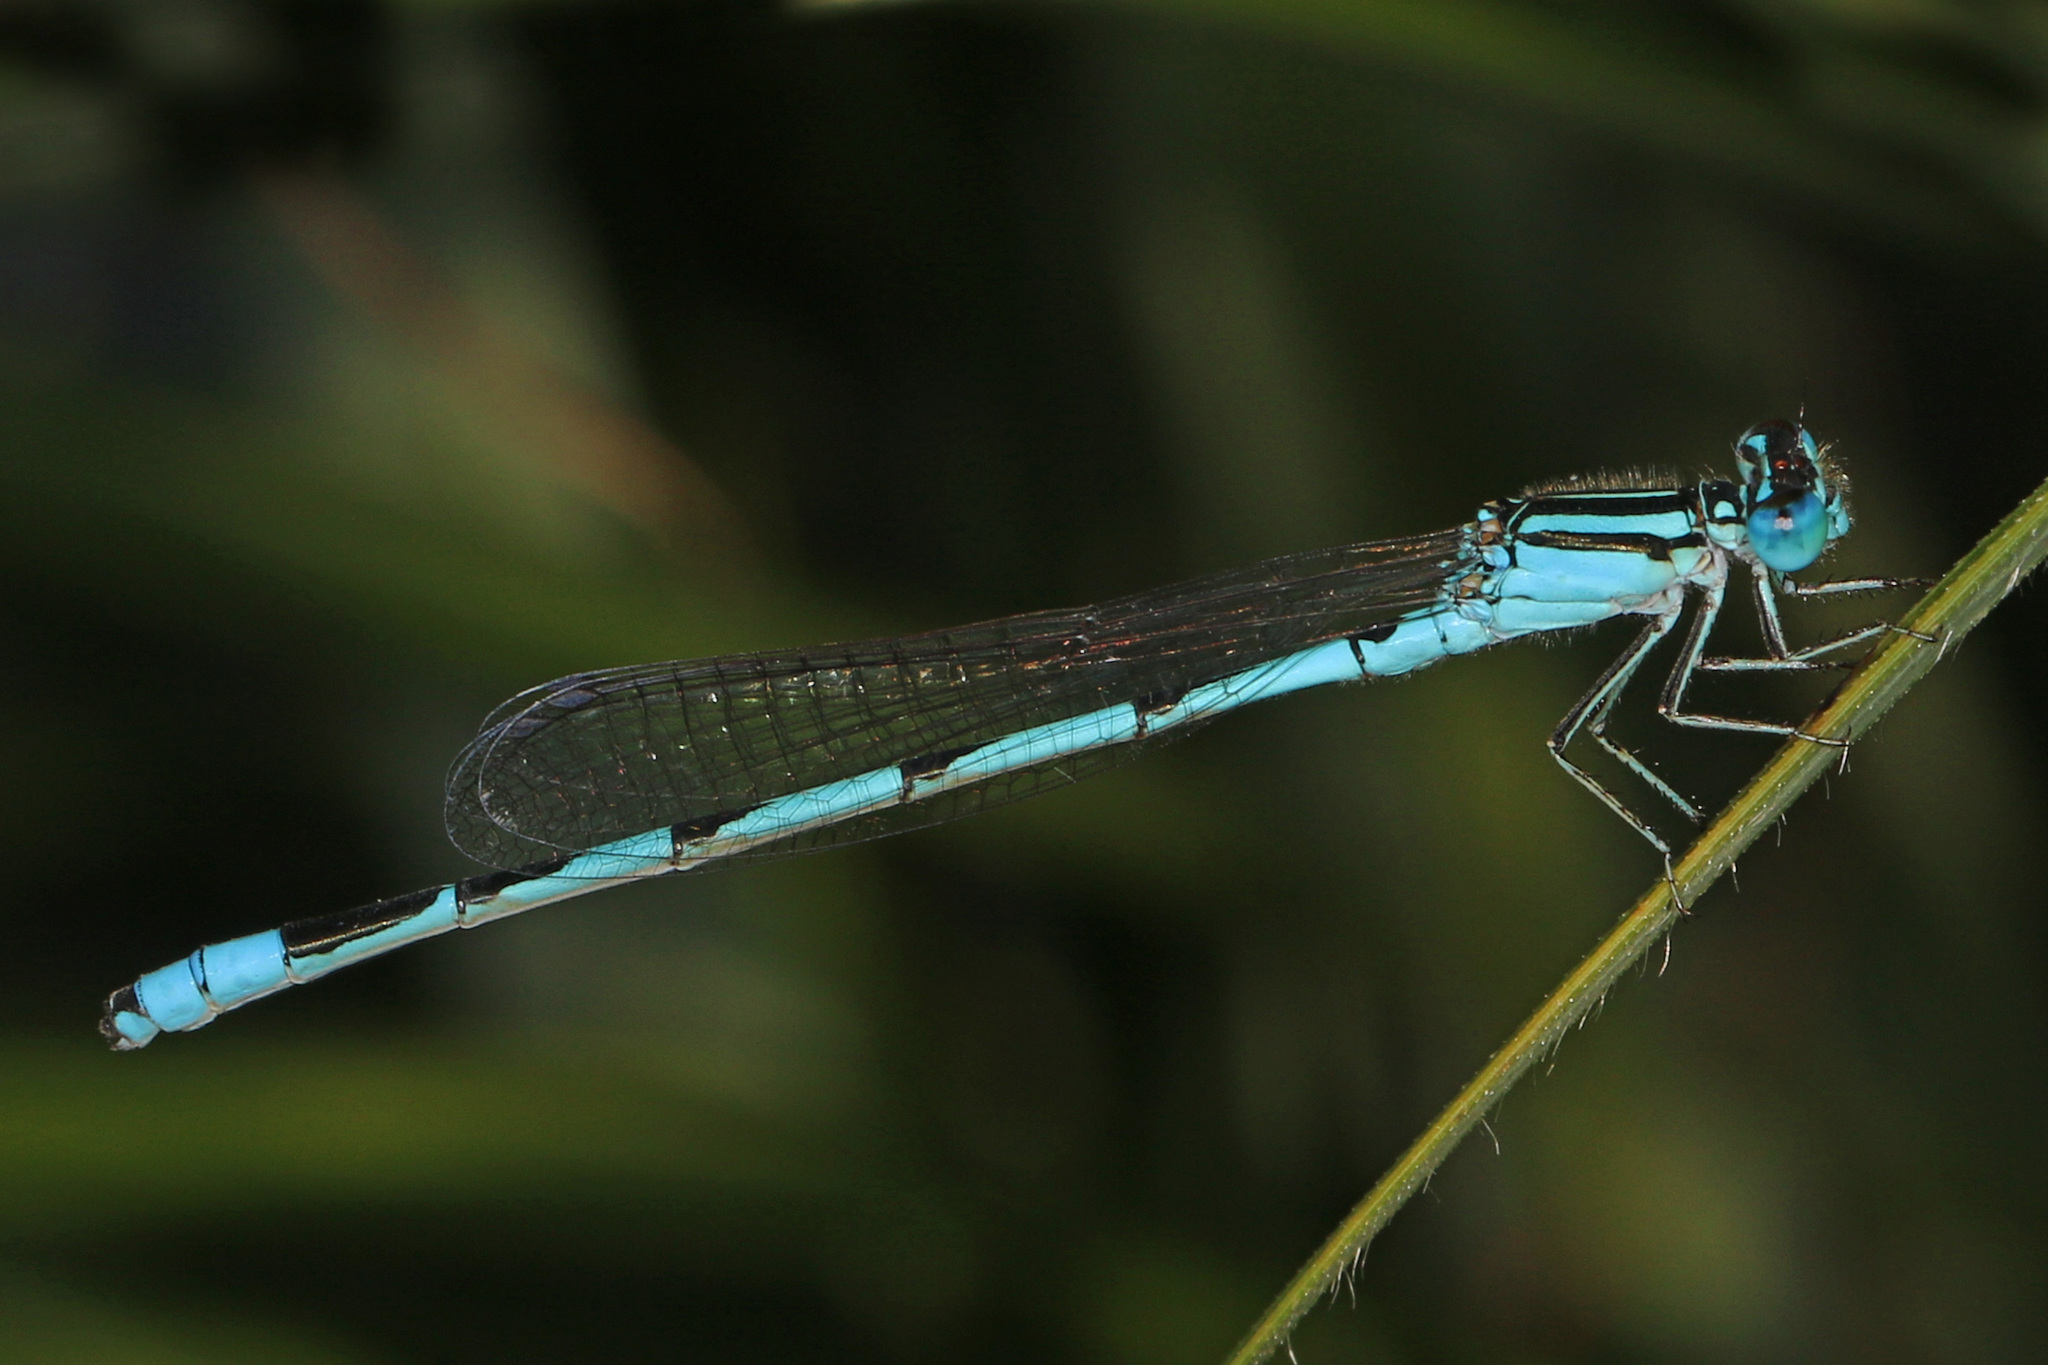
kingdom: Animalia
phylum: Arthropoda
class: Insecta
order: Odonata
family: Coenagrionidae
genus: Enallagma
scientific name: Enallagma durum
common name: Big bluet
